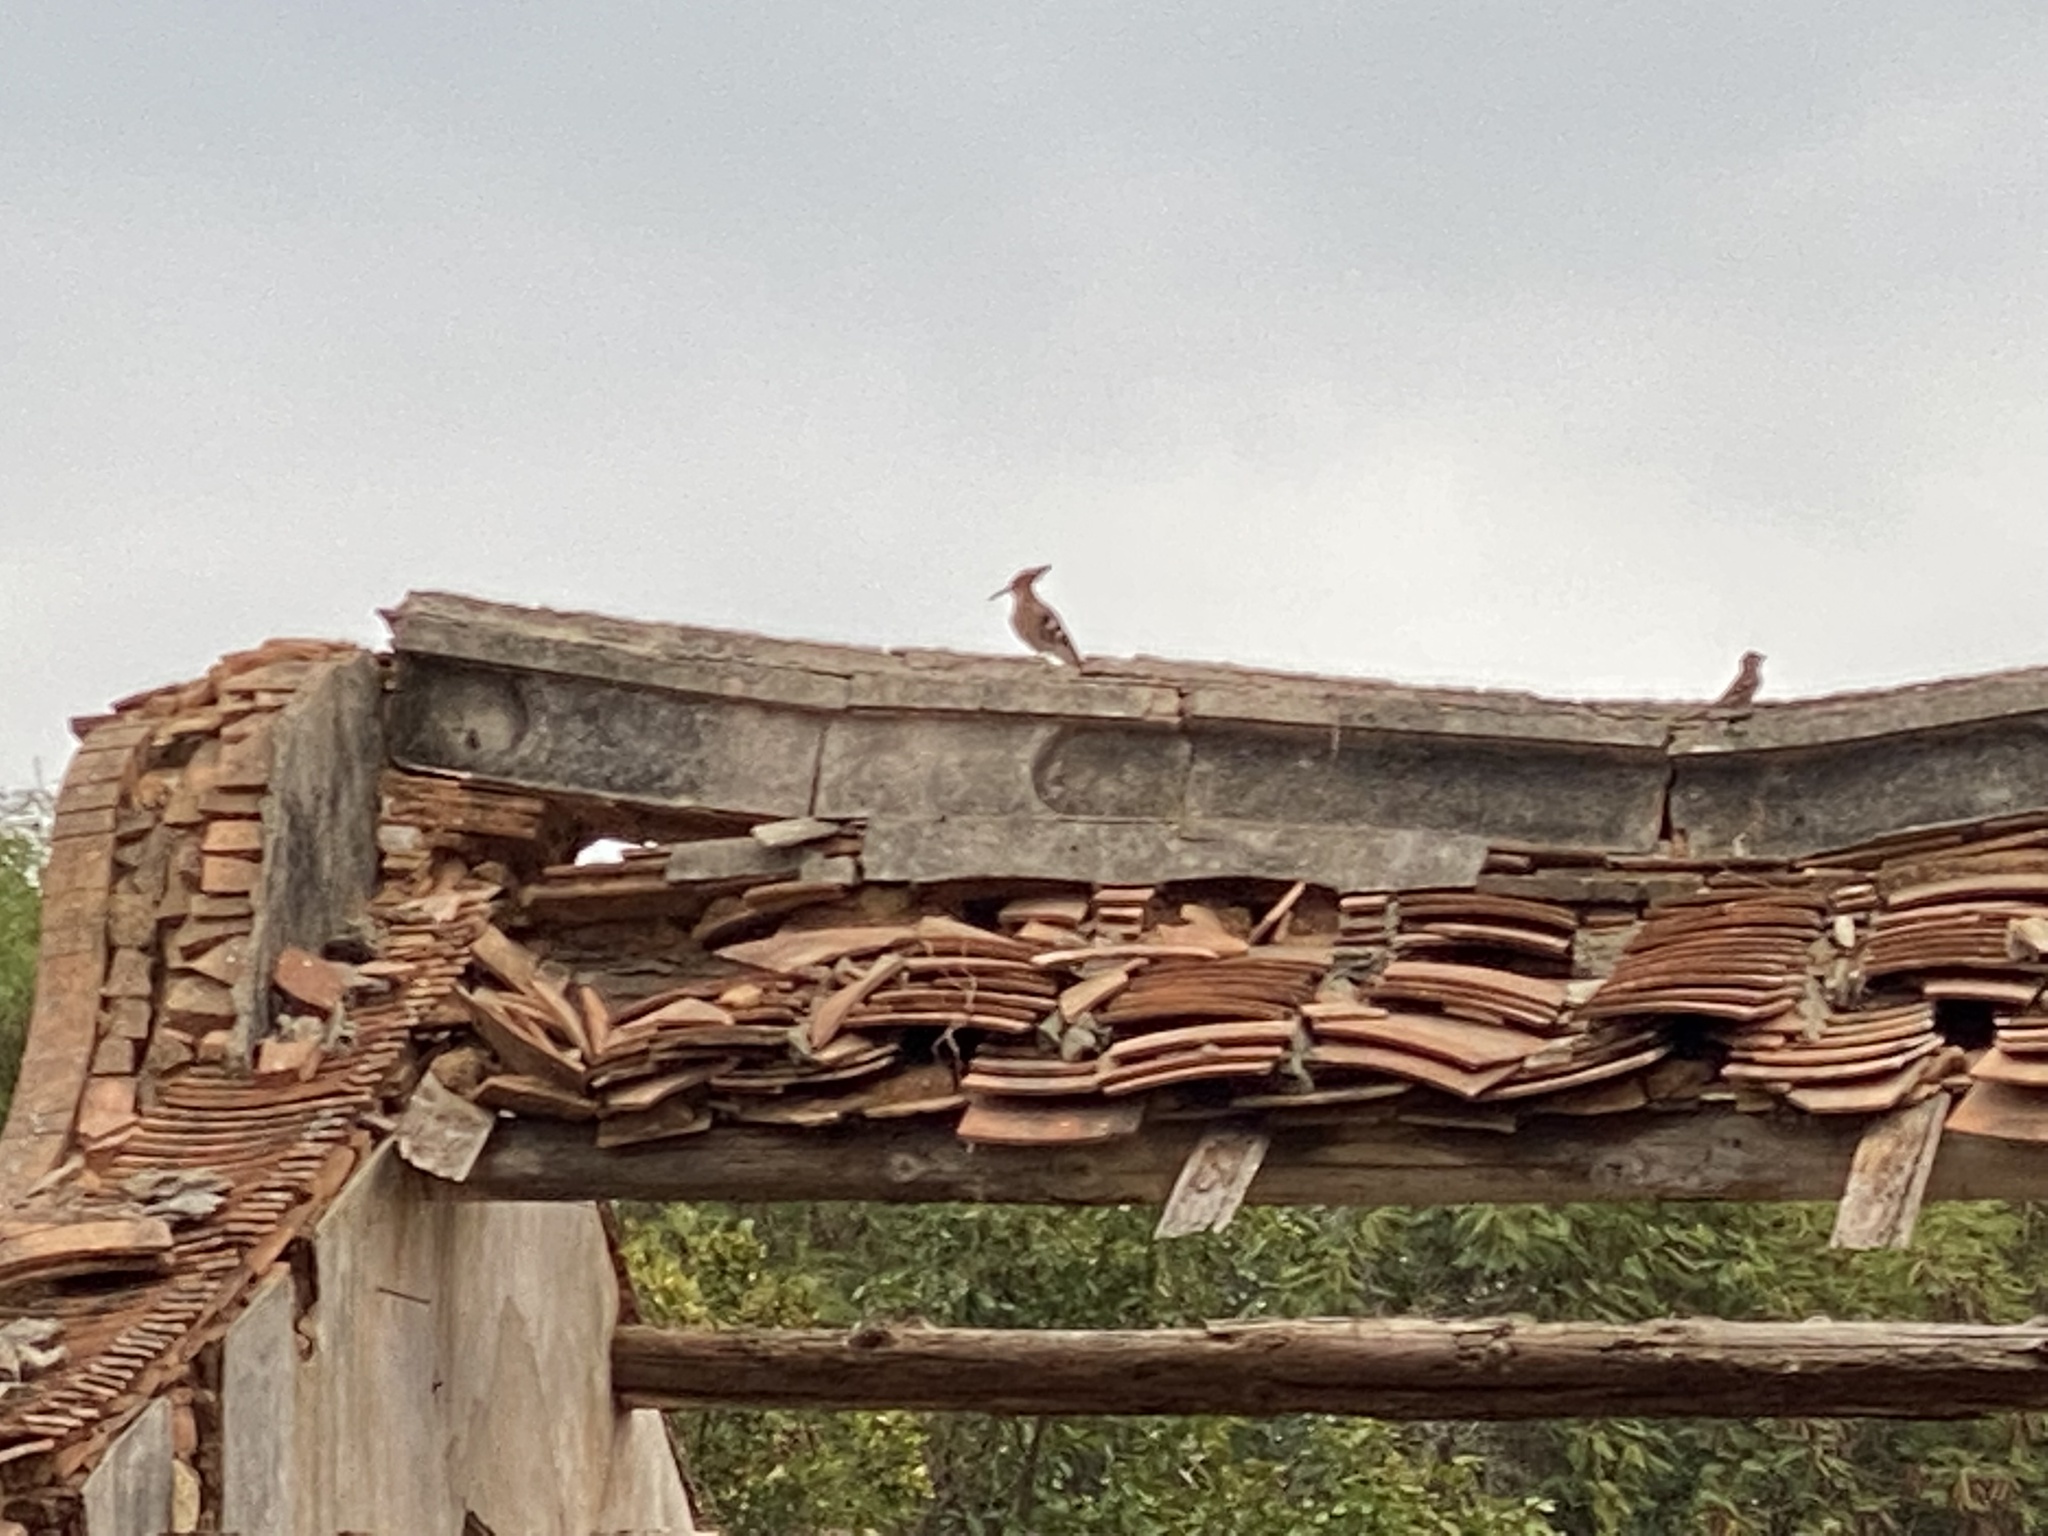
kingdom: Animalia
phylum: Chordata
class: Aves
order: Bucerotiformes
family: Upupidae
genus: Upupa
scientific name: Upupa epops
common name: Eurasian hoopoe
